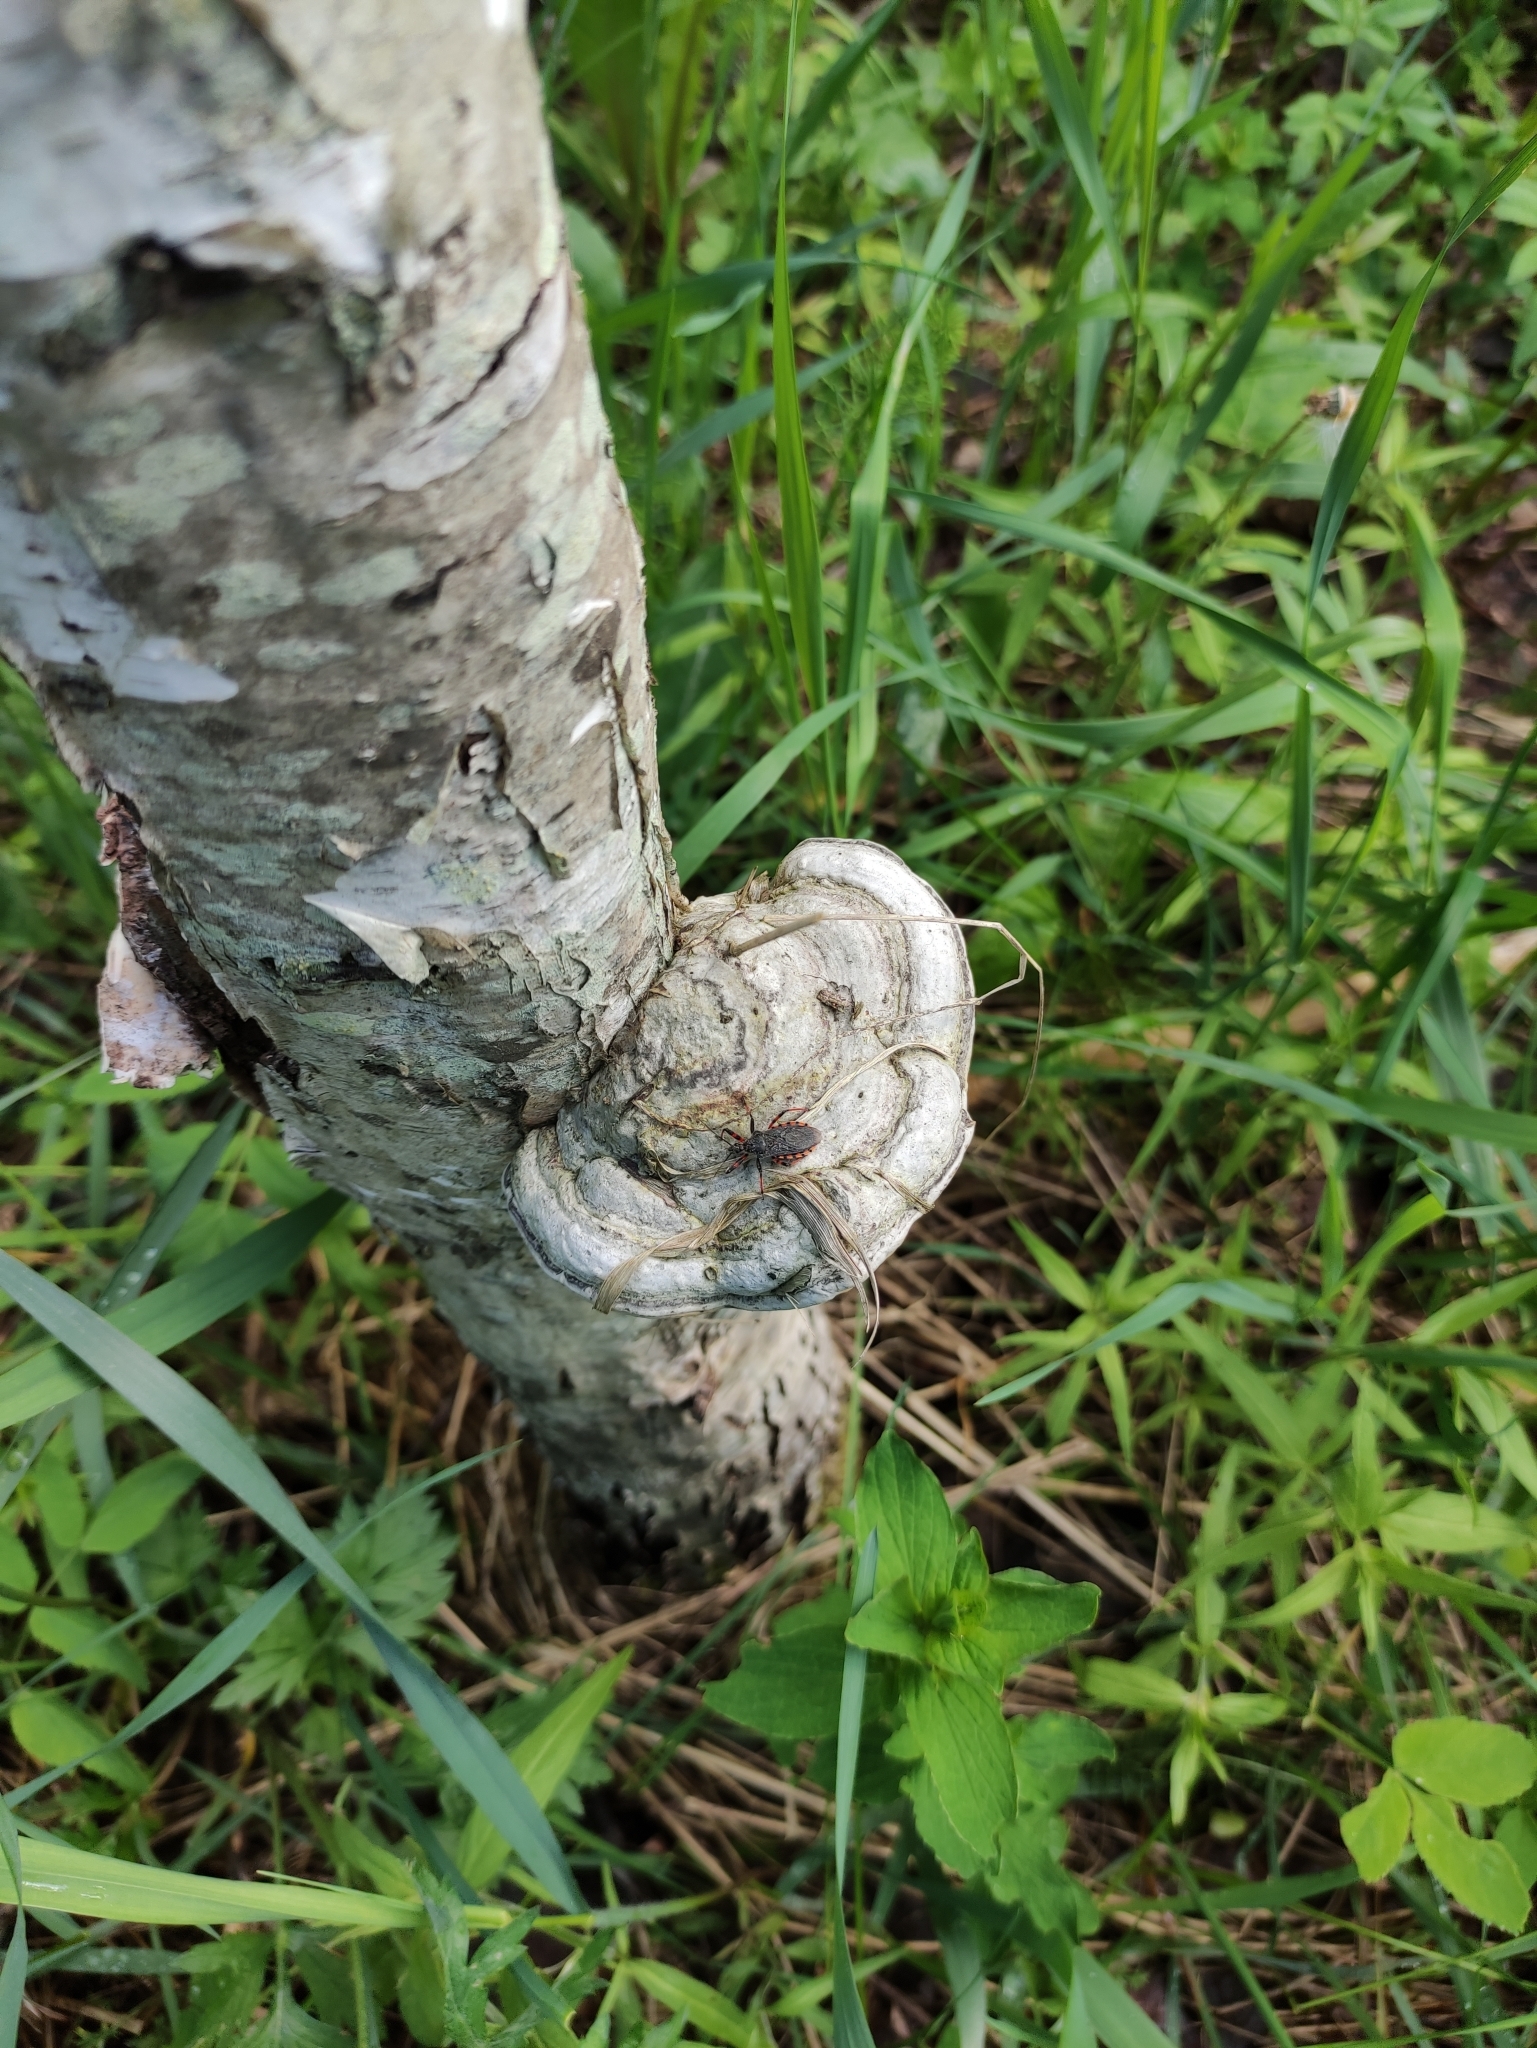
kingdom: Fungi
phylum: Basidiomycota
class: Agaricomycetes
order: Polyporales
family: Polyporaceae
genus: Fomes
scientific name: Fomes fomentarius
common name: Hoof fungus
